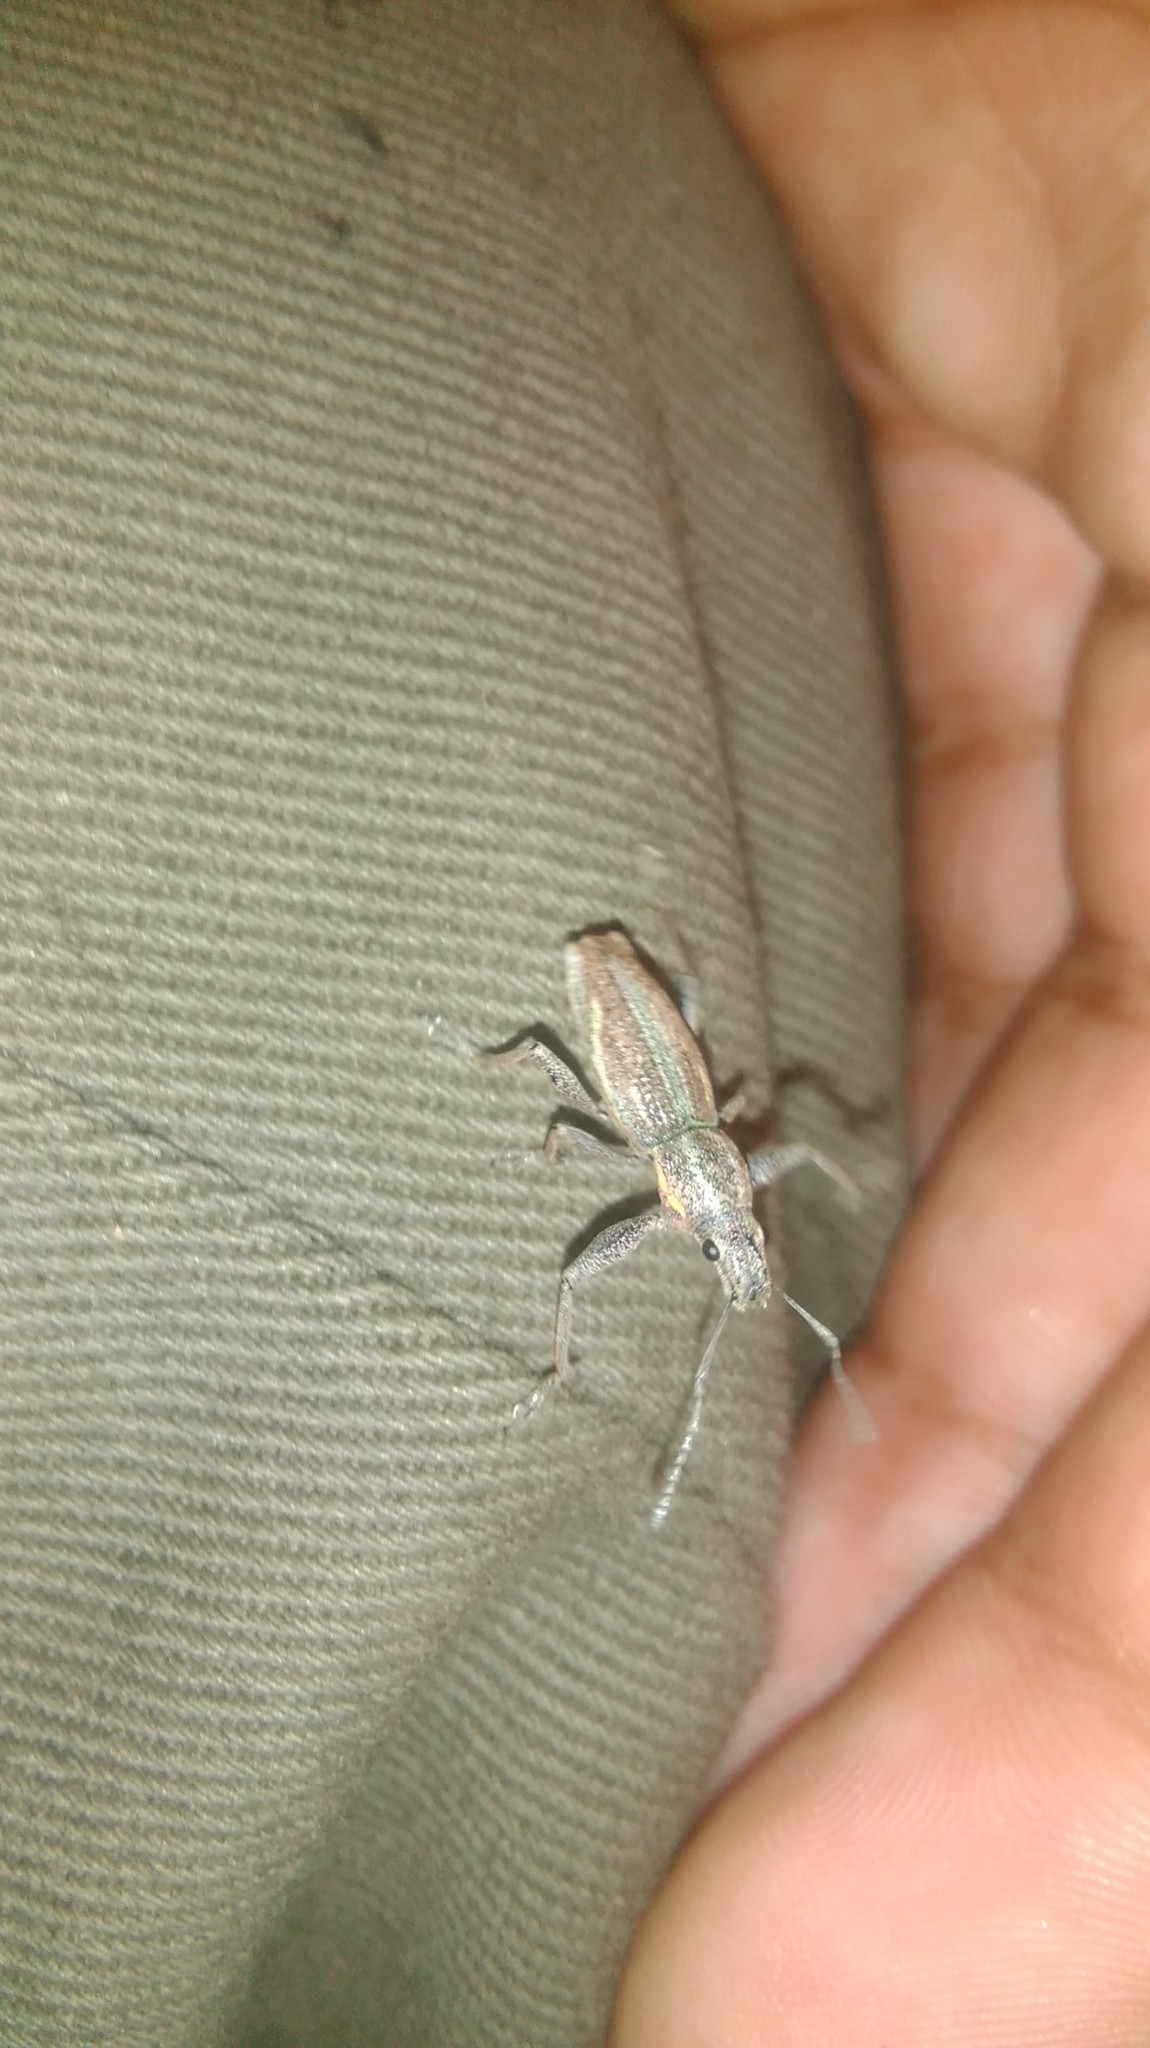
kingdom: Animalia
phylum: Arthropoda
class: Insecta
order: Coleoptera
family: Curculionidae
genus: Naupactus
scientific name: Naupactus xanthographus
